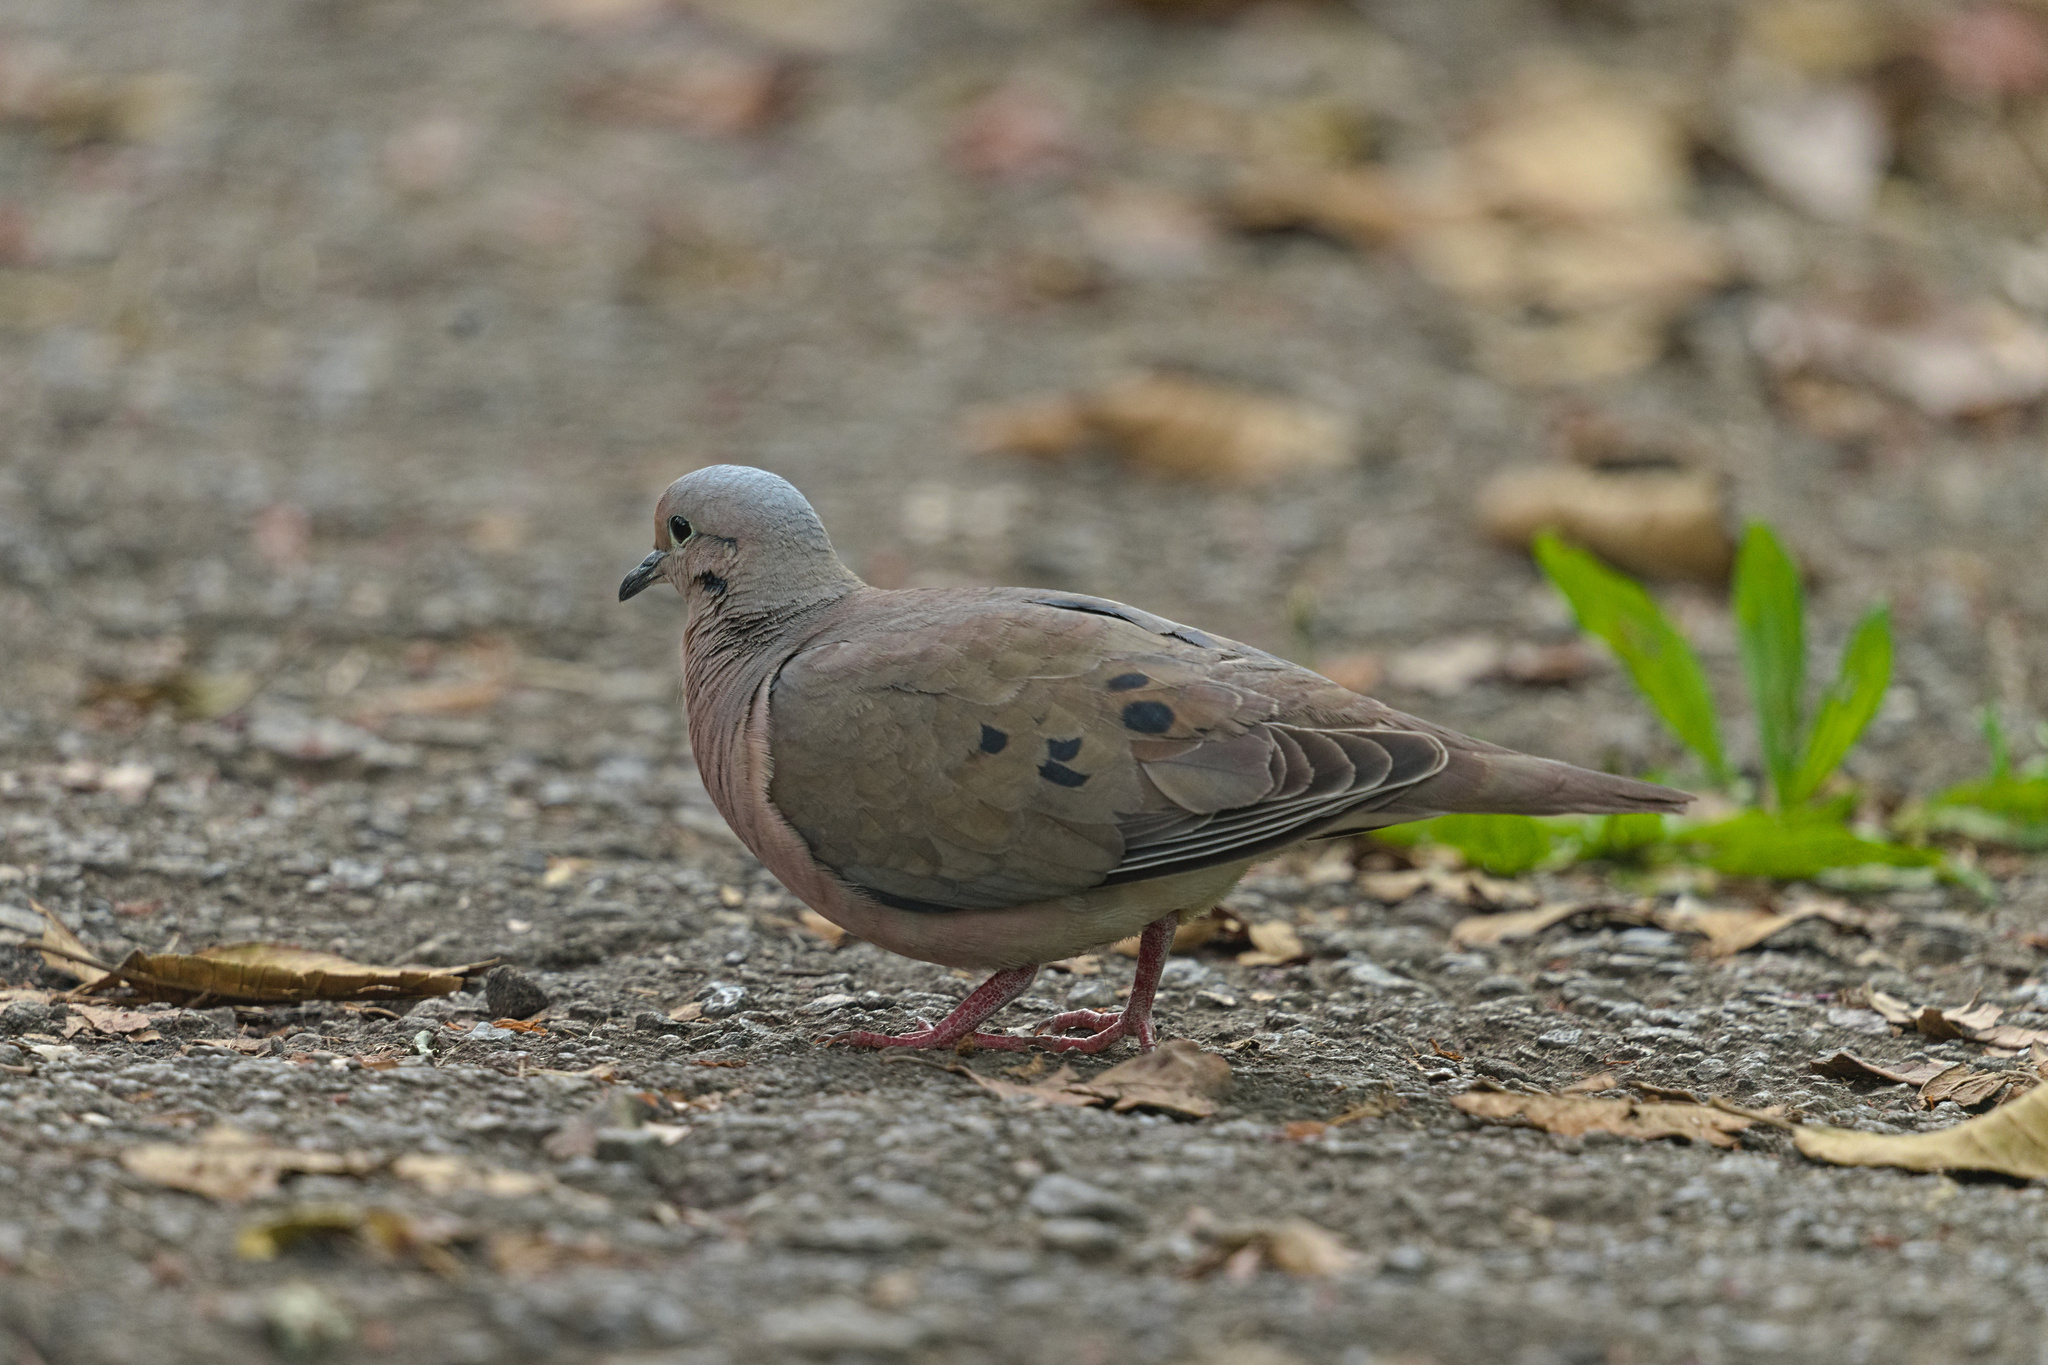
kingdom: Animalia
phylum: Chordata
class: Aves
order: Columbiformes
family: Columbidae
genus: Zenaida
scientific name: Zenaida auriculata
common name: Eared dove
